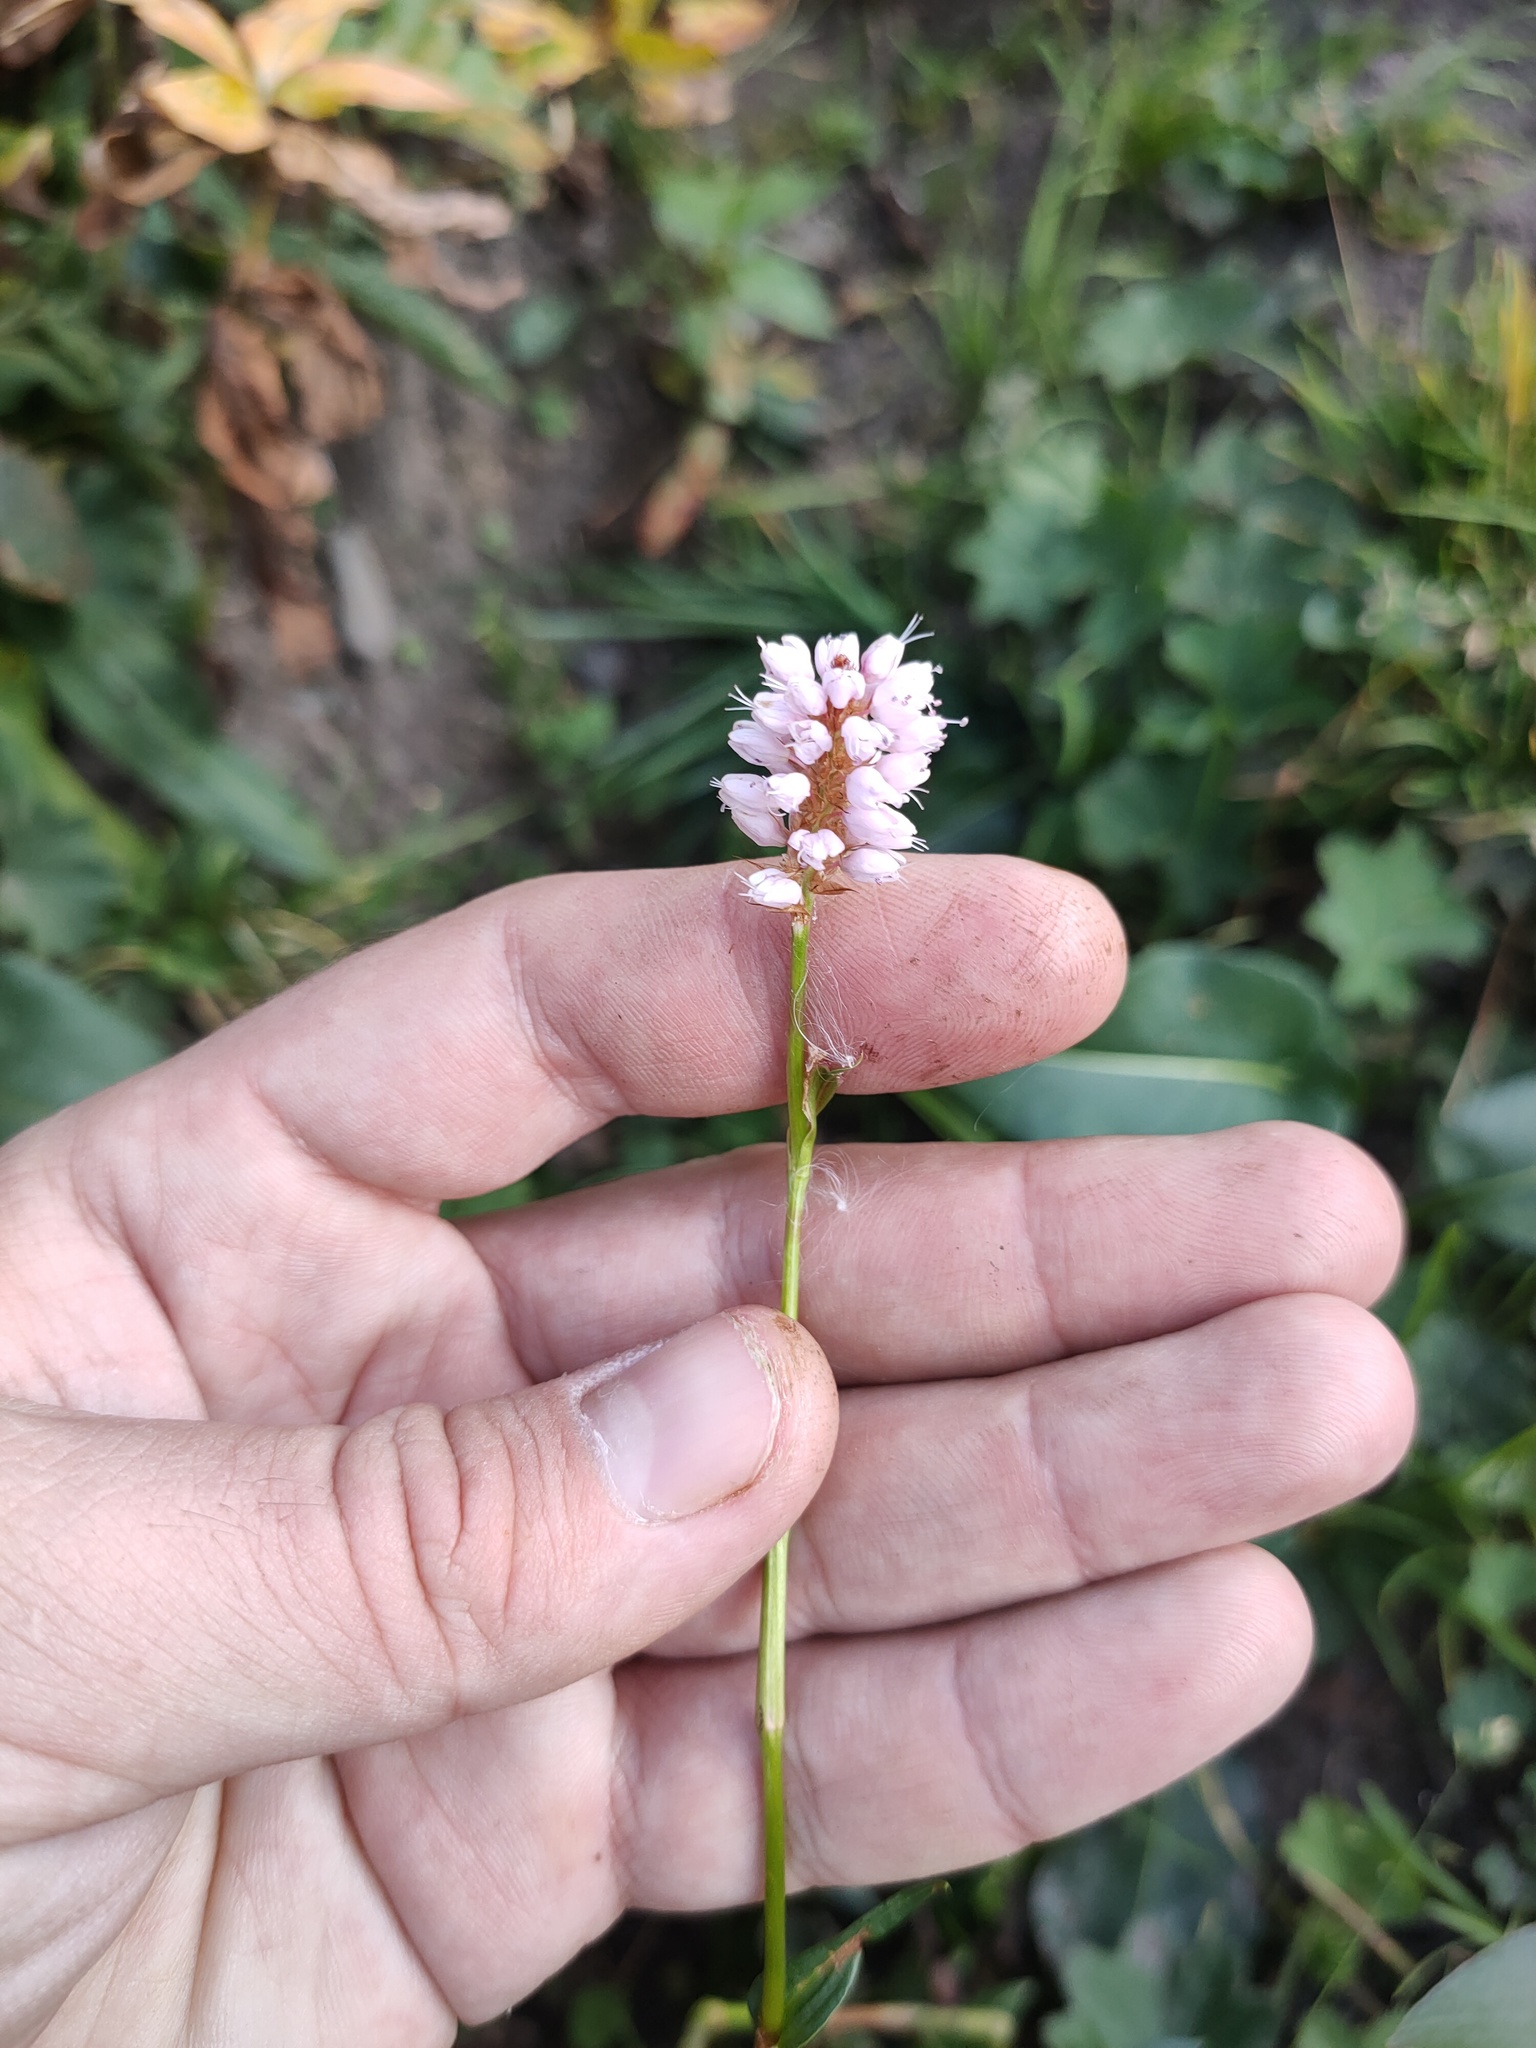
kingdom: Plantae
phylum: Tracheophyta
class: Magnoliopsida
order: Caryophyllales
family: Polygonaceae
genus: Bistorta
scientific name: Bistorta officinalis
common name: Common bistort
